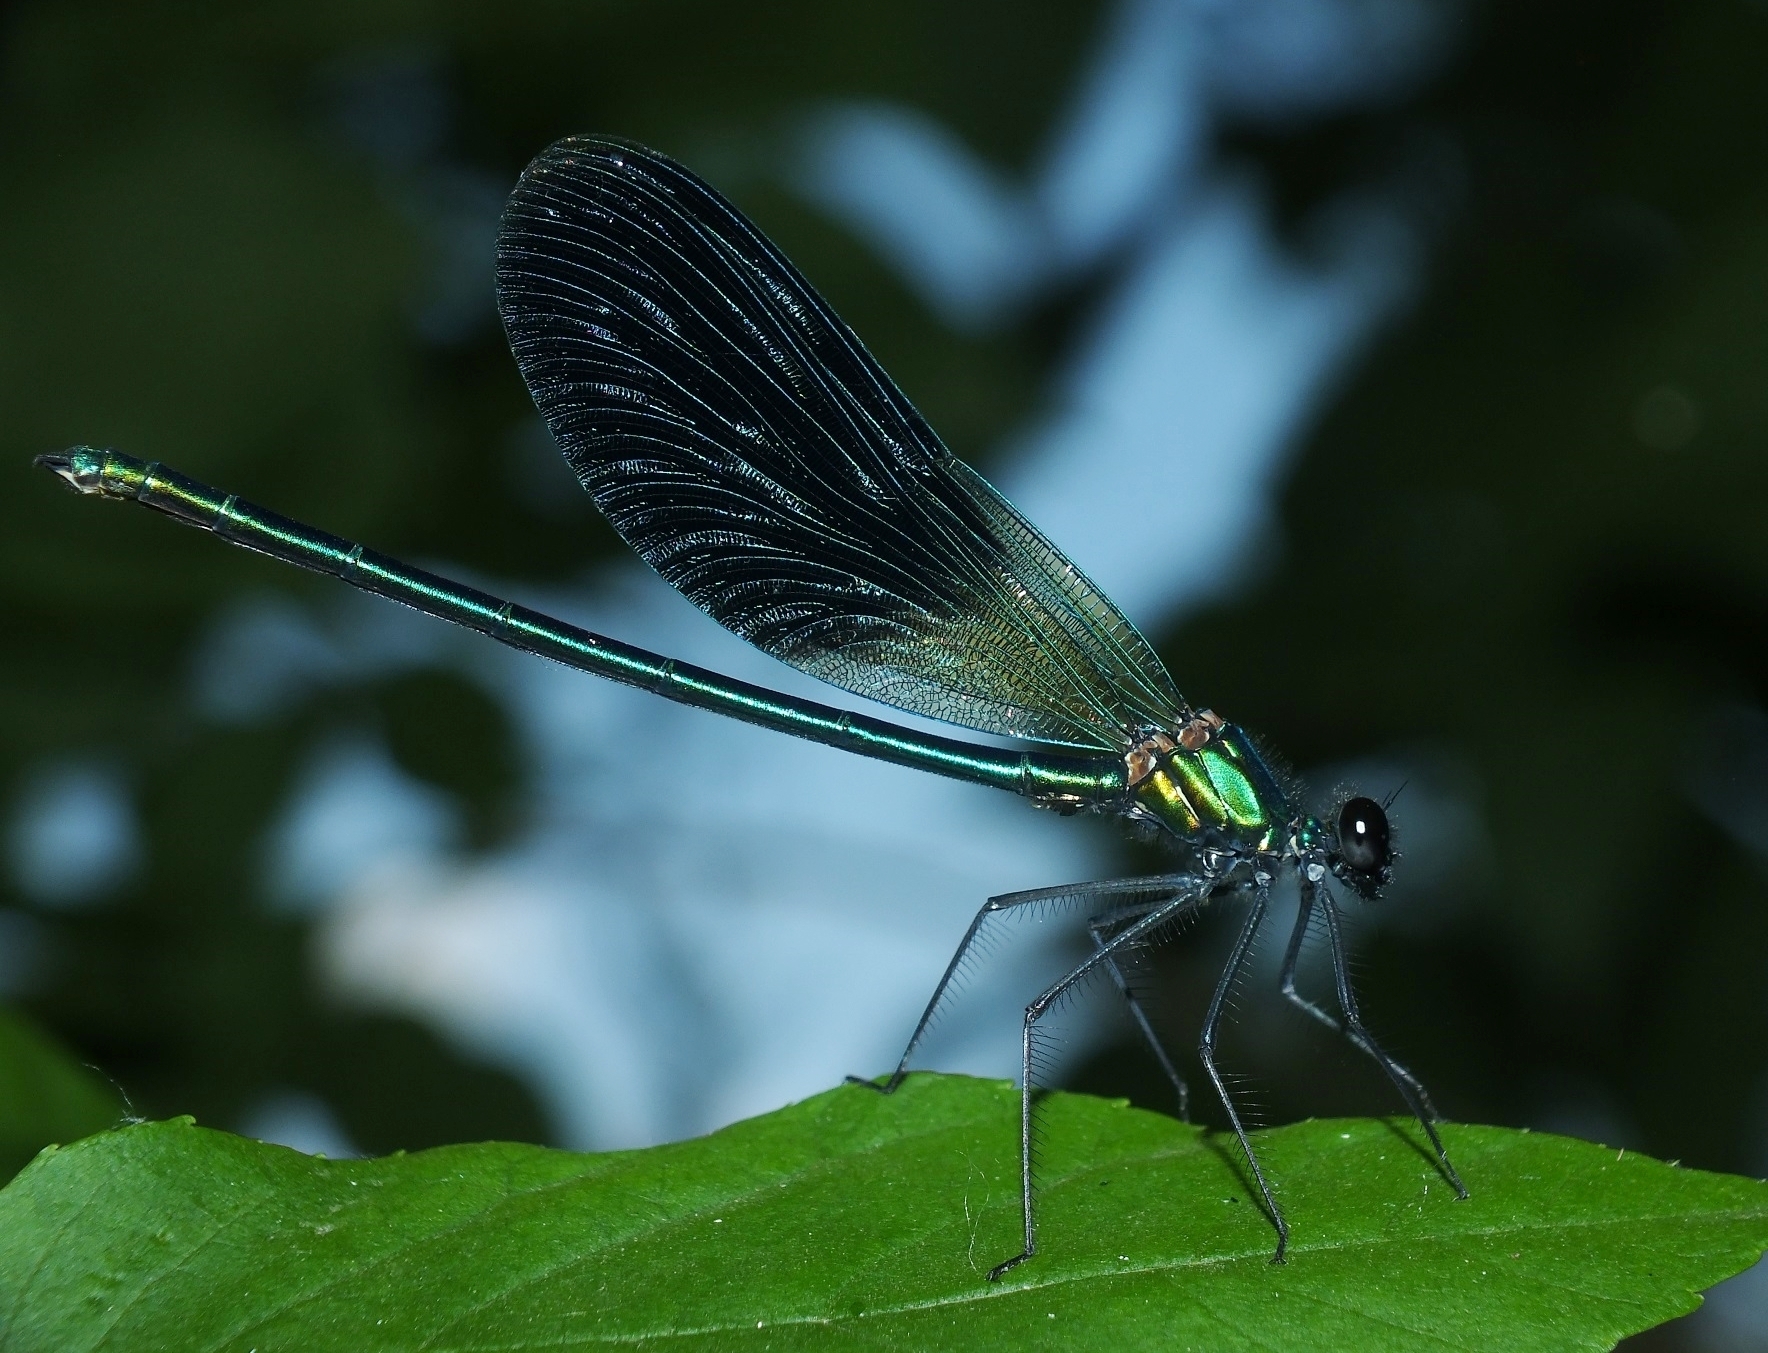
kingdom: Animalia
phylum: Arthropoda
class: Insecta
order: Odonata
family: Calopterygidae
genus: Calopteryx
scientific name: Calopteryx splendens
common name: Banded demoiselle
